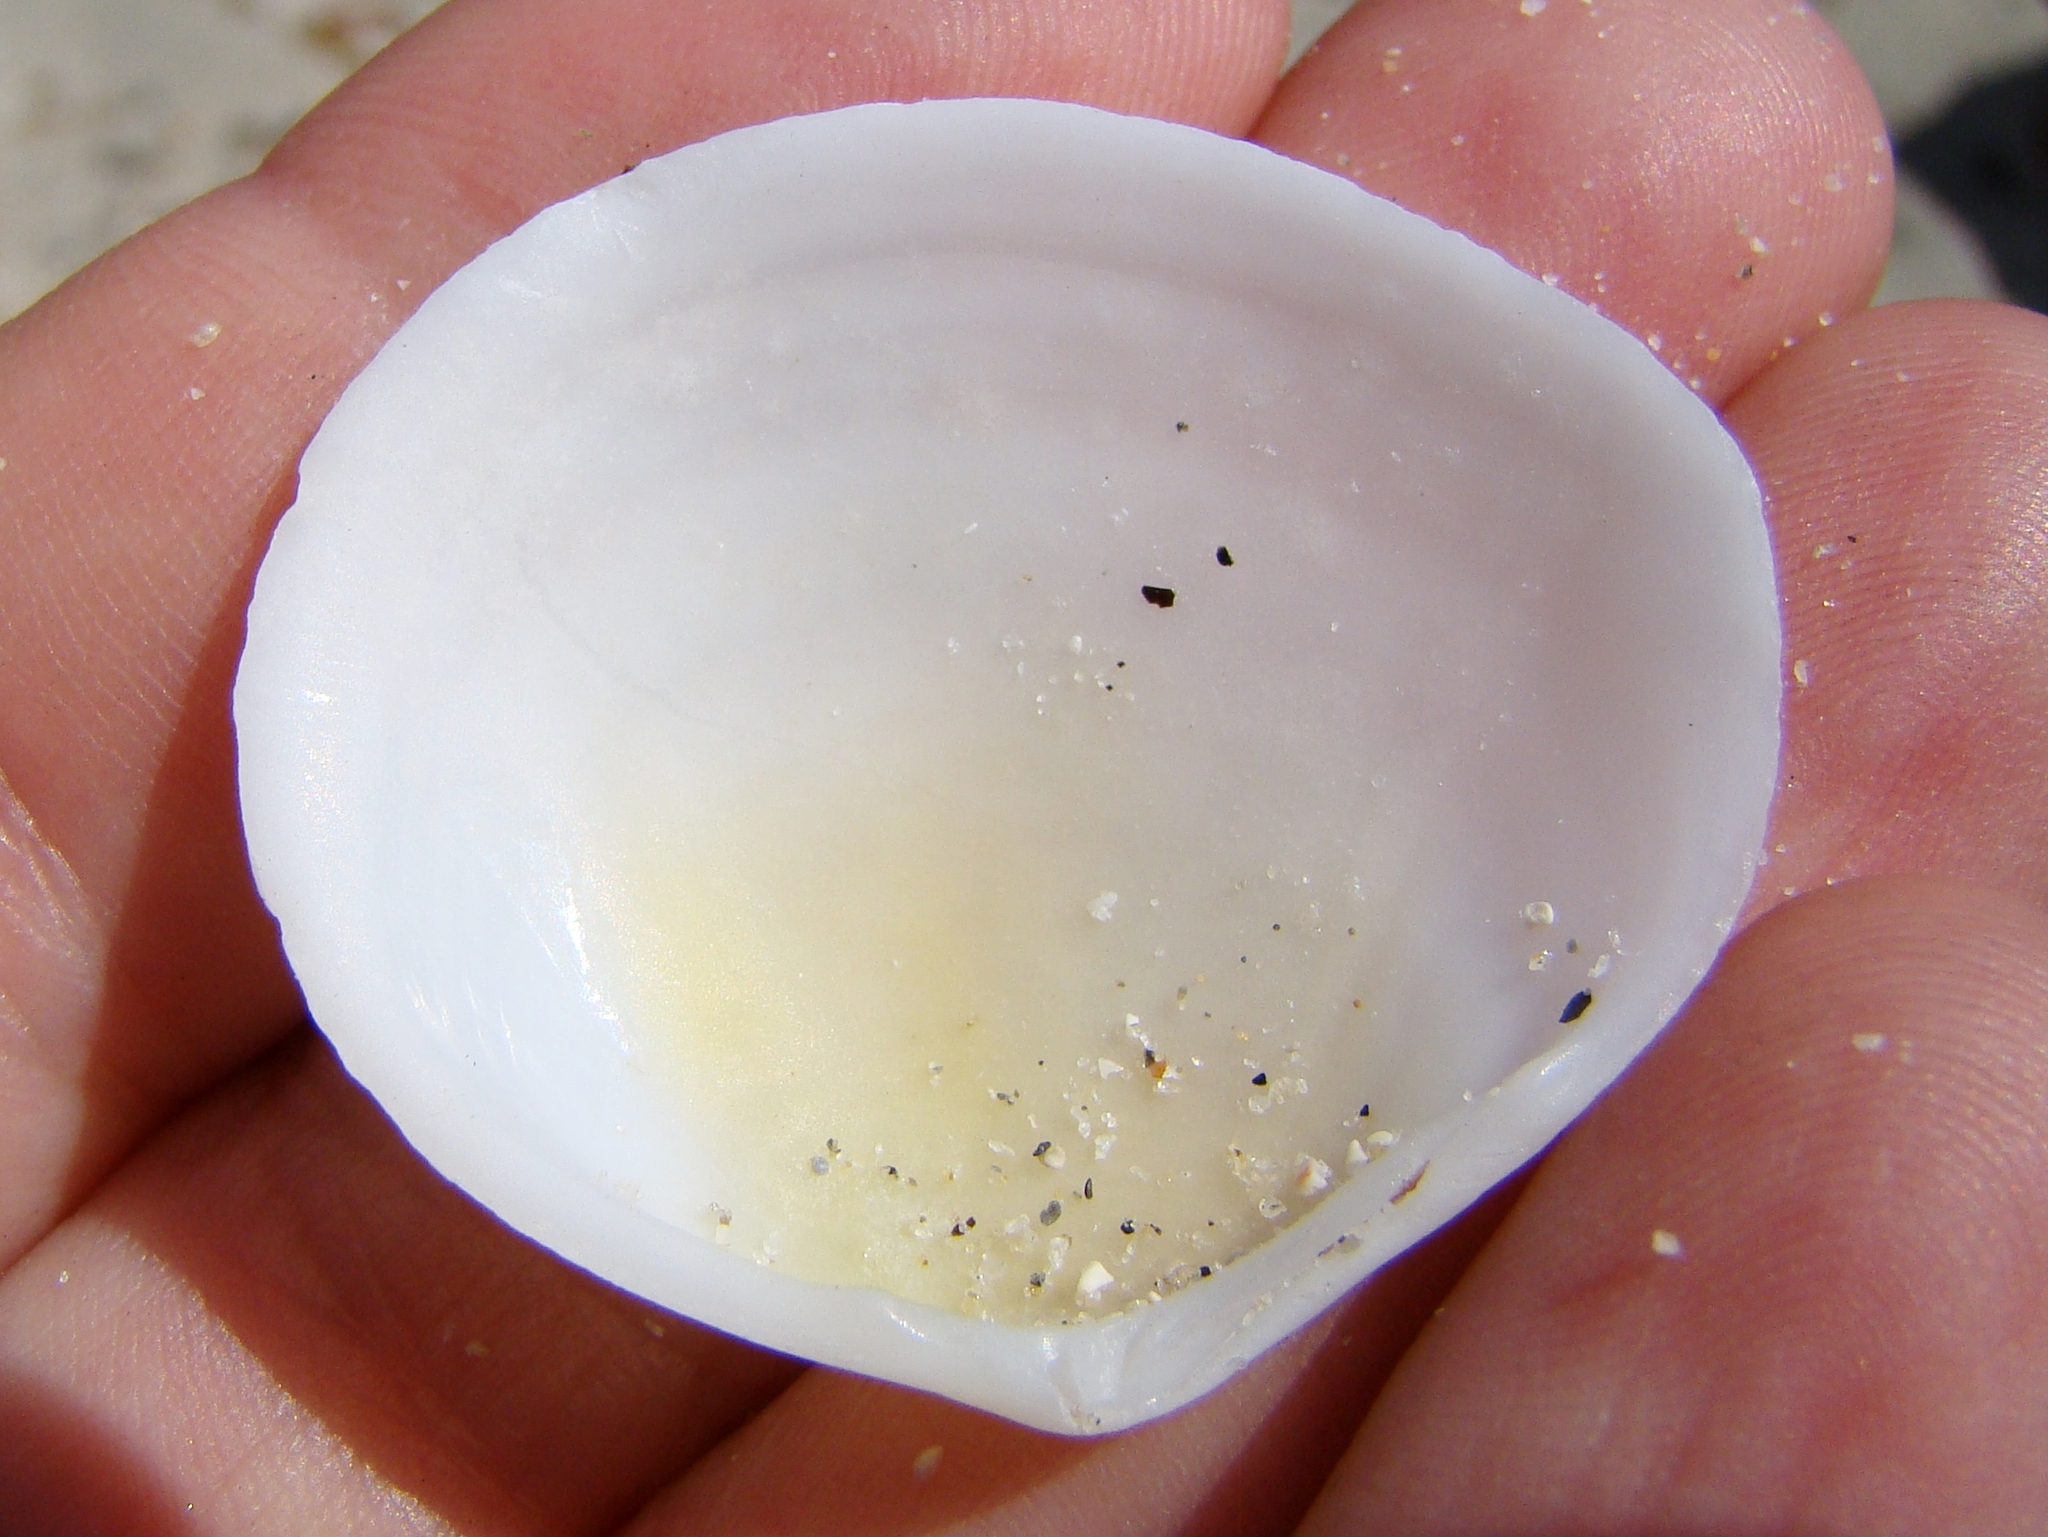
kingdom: Animalia
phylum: Mollusca
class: Bivalvia
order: Cardiida
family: Tellinidae
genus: Pseudarcopagia
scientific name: Pseudarcopagia disculus
